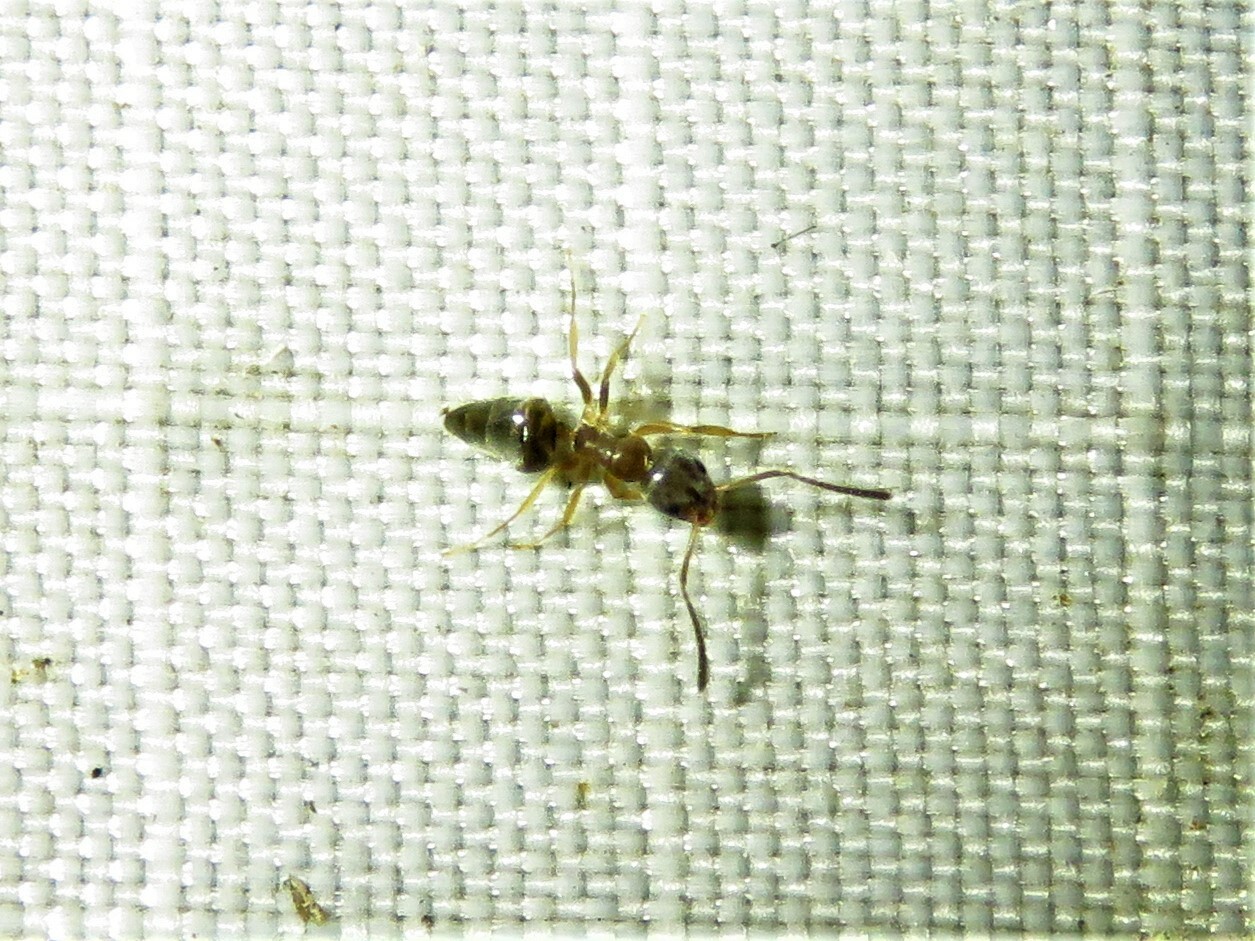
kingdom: Animalia
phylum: Arthropoda
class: Insecta
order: Hymenoptera
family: Formicidae
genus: Tapinoma
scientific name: Tapinoma sessile
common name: Odorous house ant
